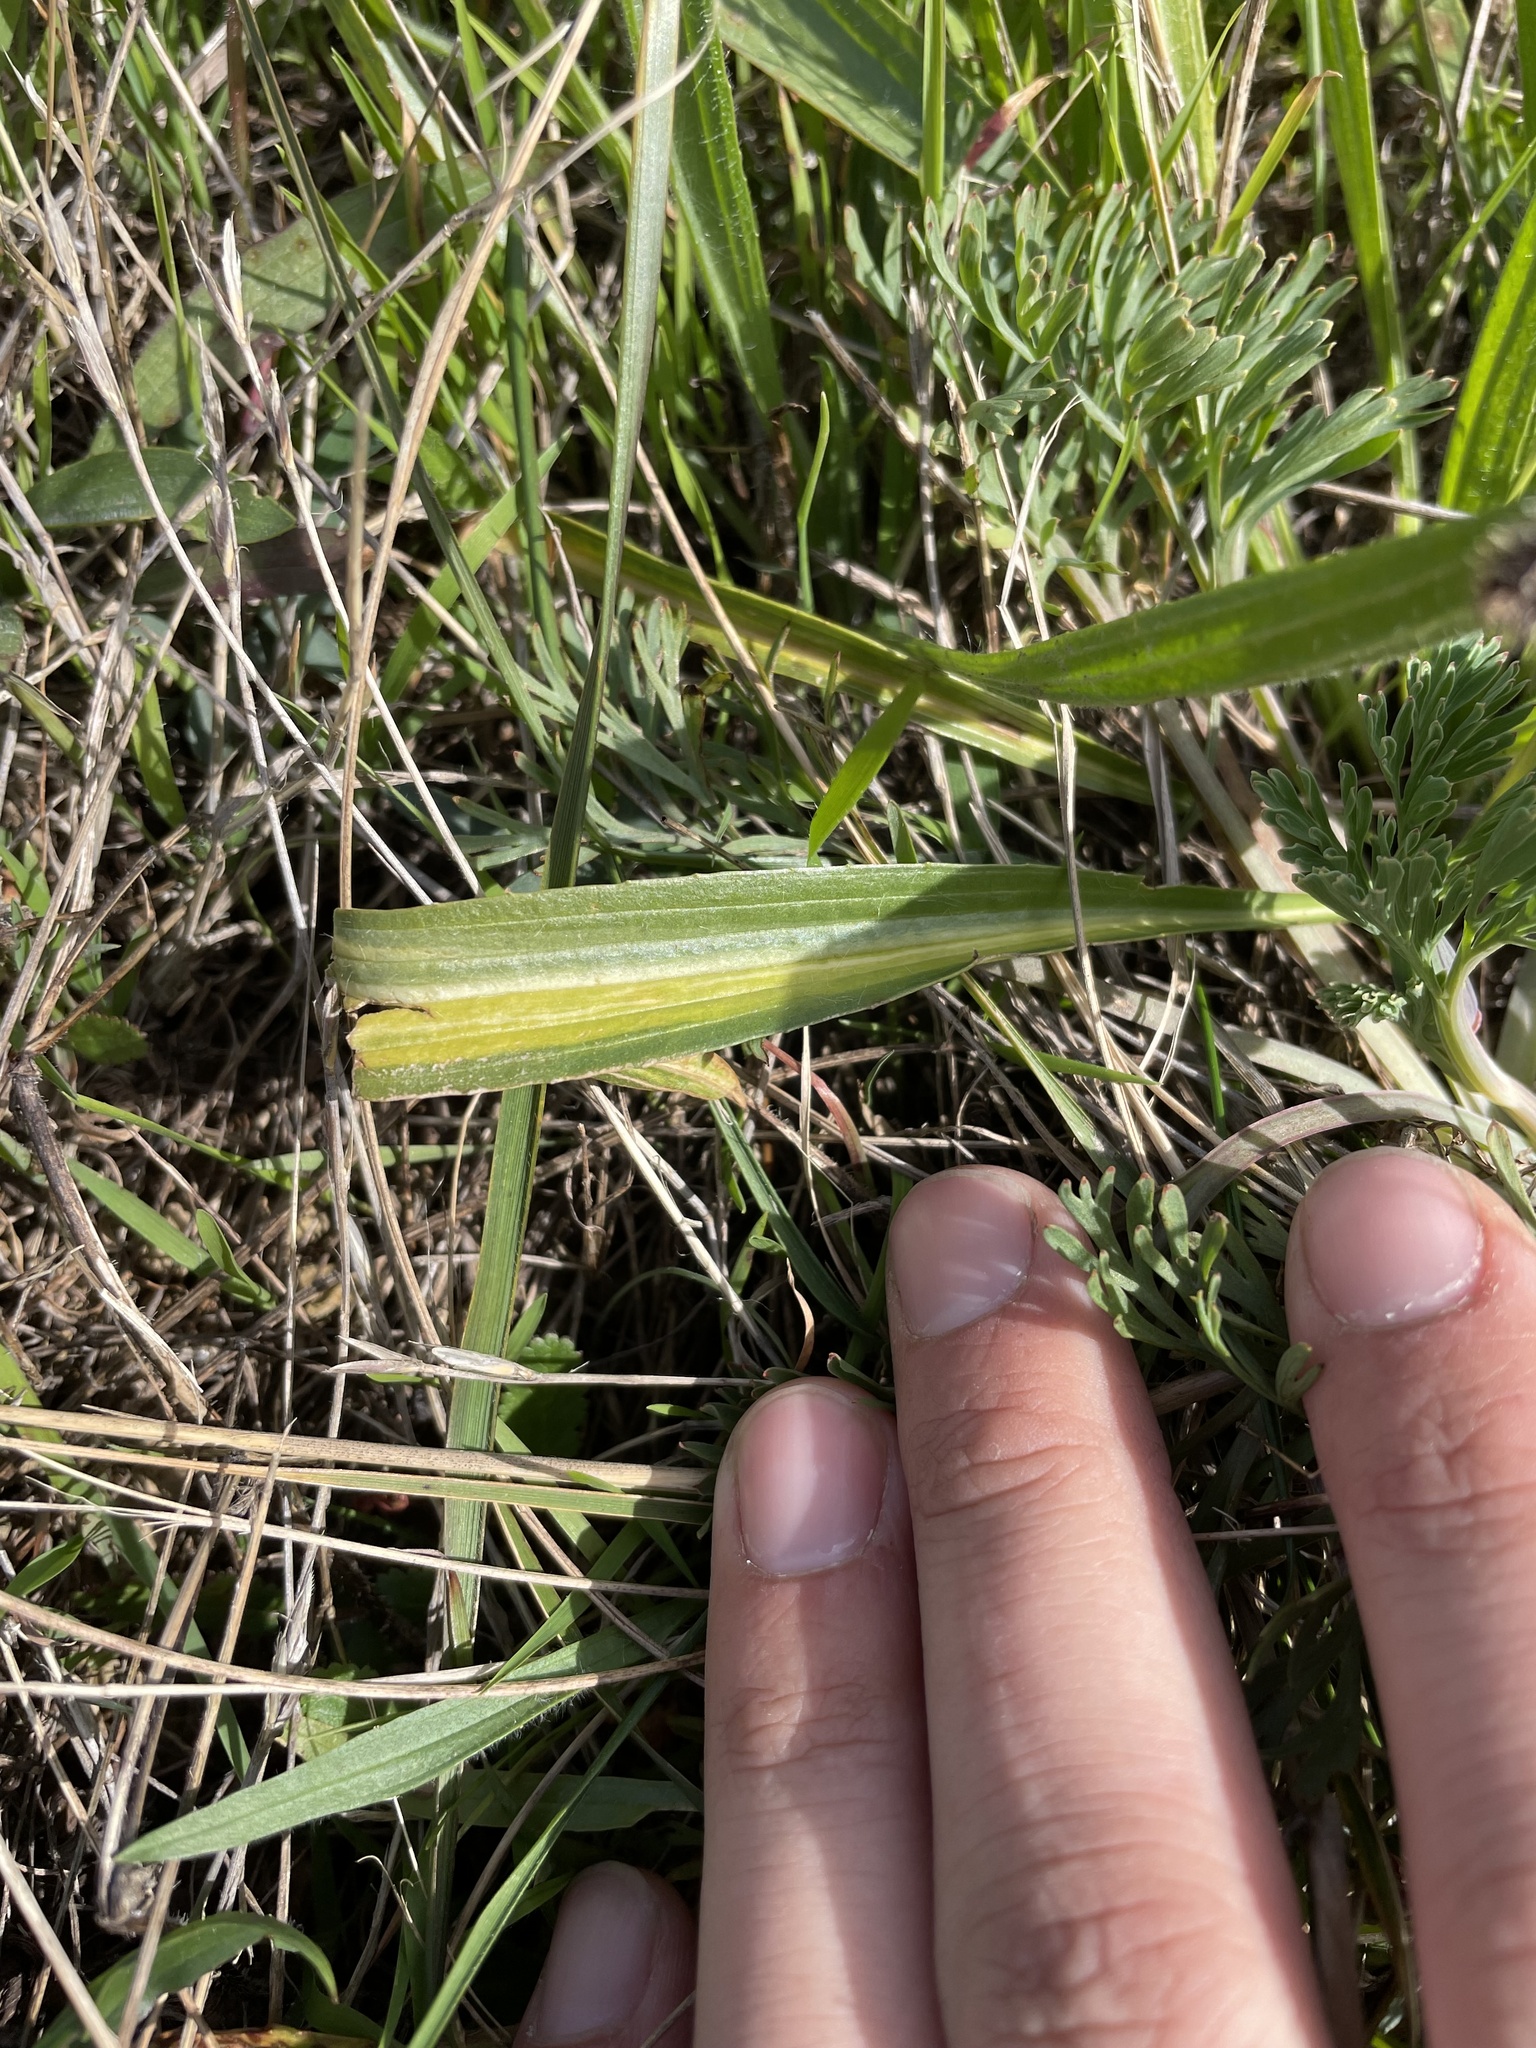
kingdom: Plantae
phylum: Tracheophyta
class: Magnoliopsida
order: Lamiales
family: Plantaginaceae
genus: Plantago
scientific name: Plantago lanceolata
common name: Ribwort plantain
